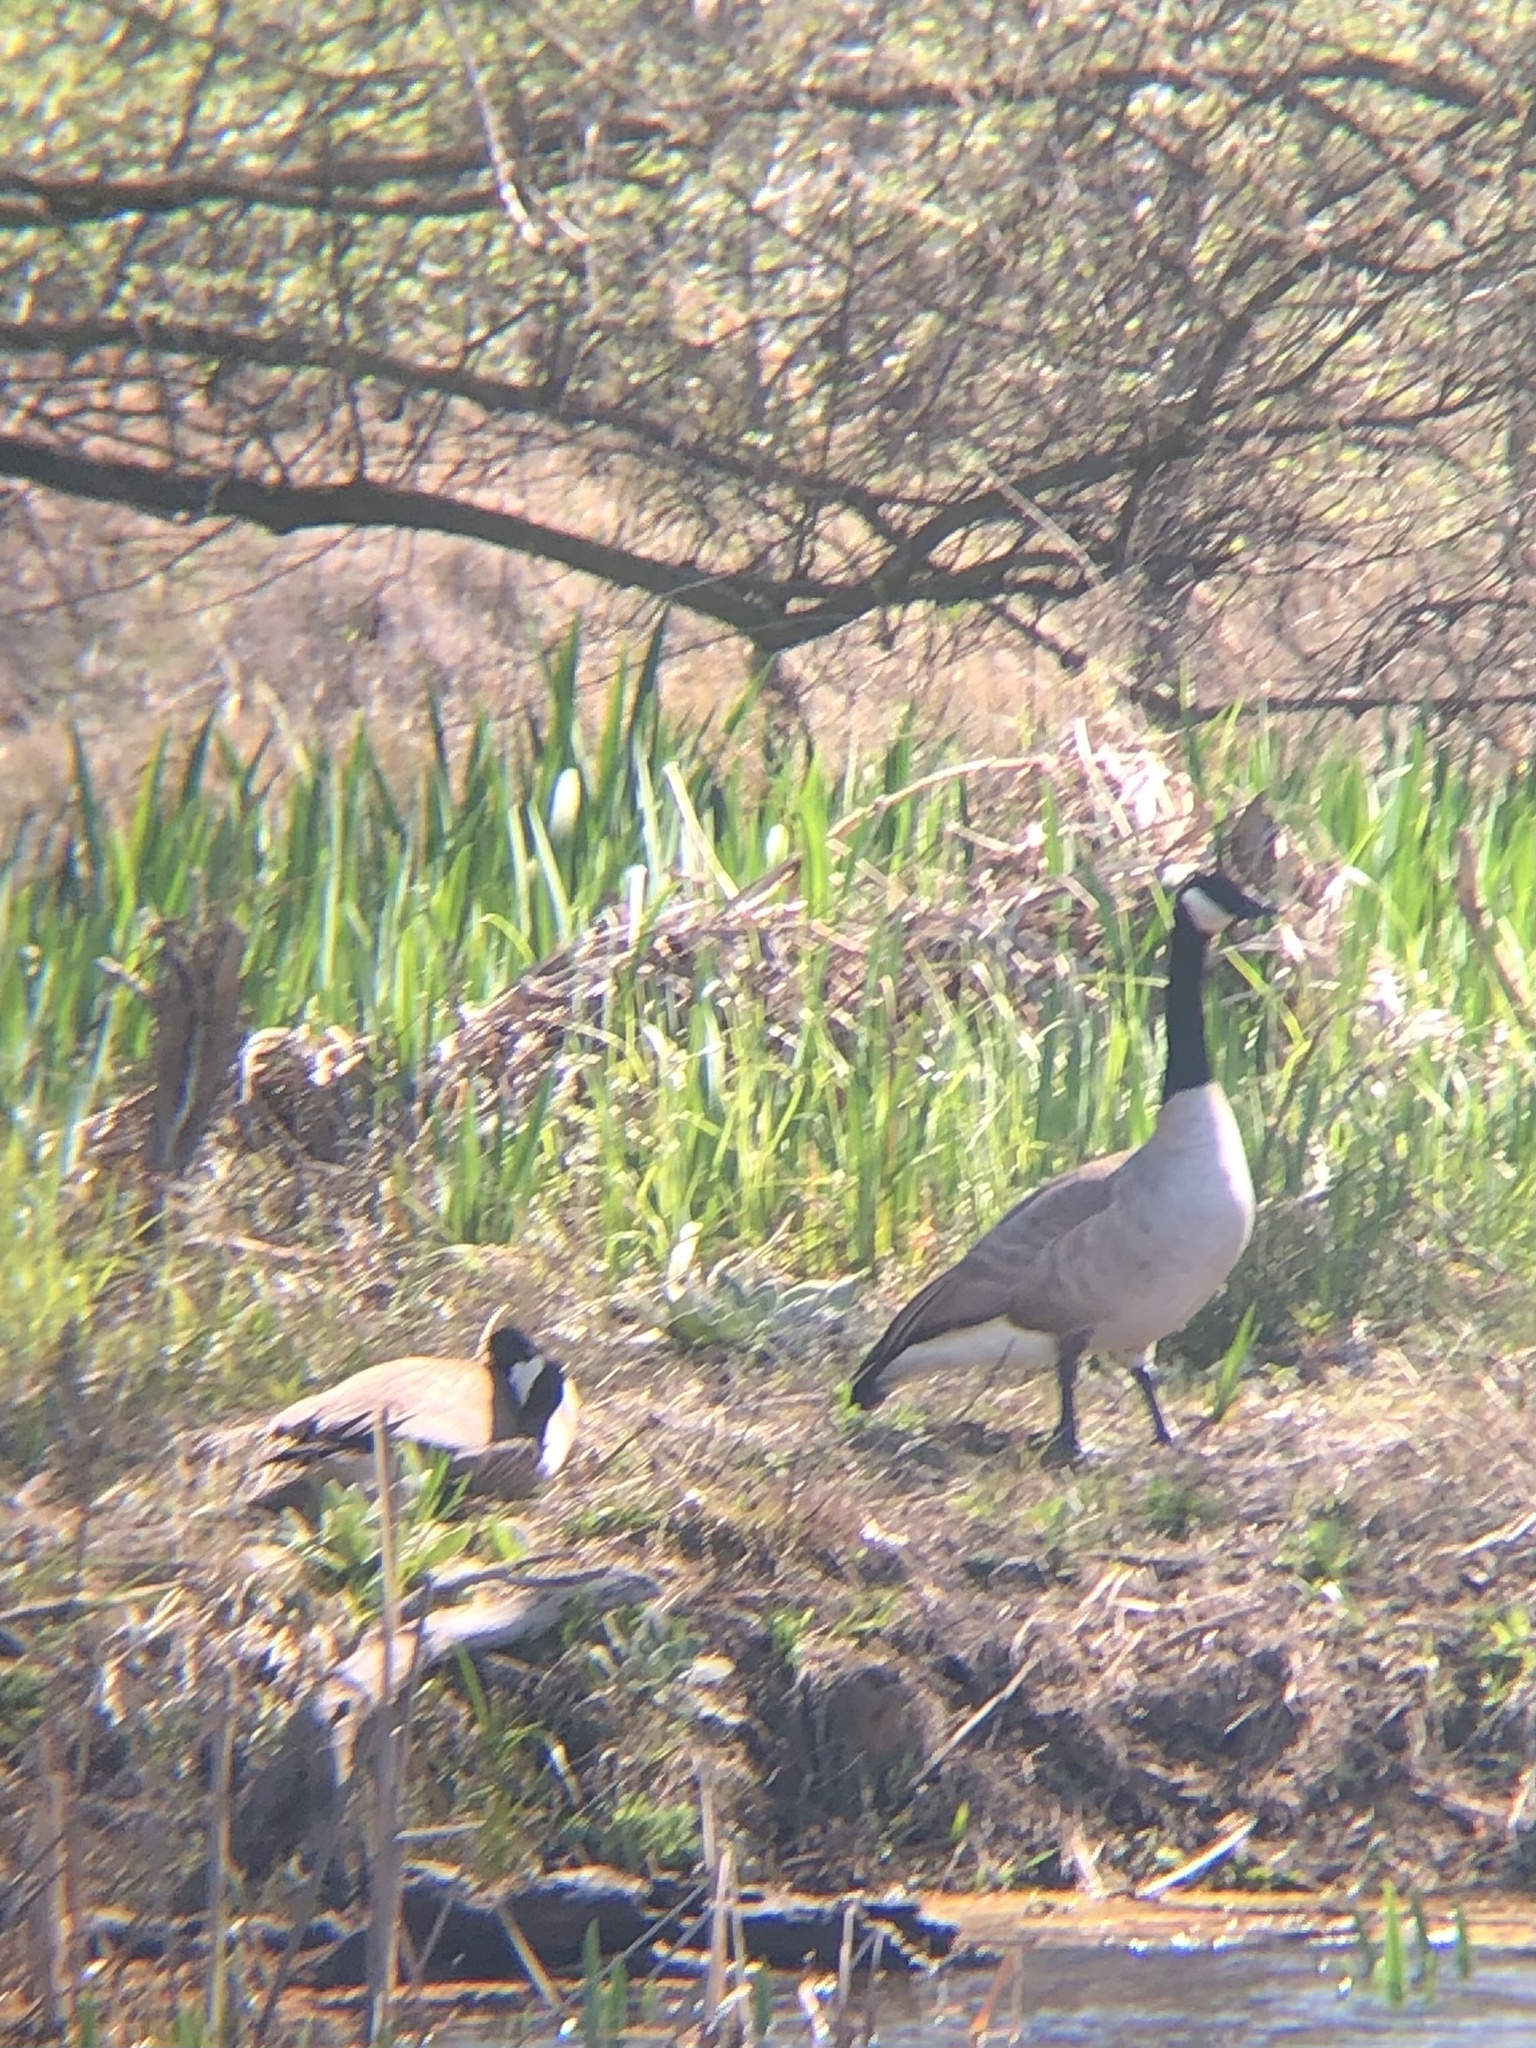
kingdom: Animalia
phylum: Chordata
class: Aves
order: Anseriformes
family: Anatidae
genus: Branta
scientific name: Branta canadensis
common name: Canada goose
